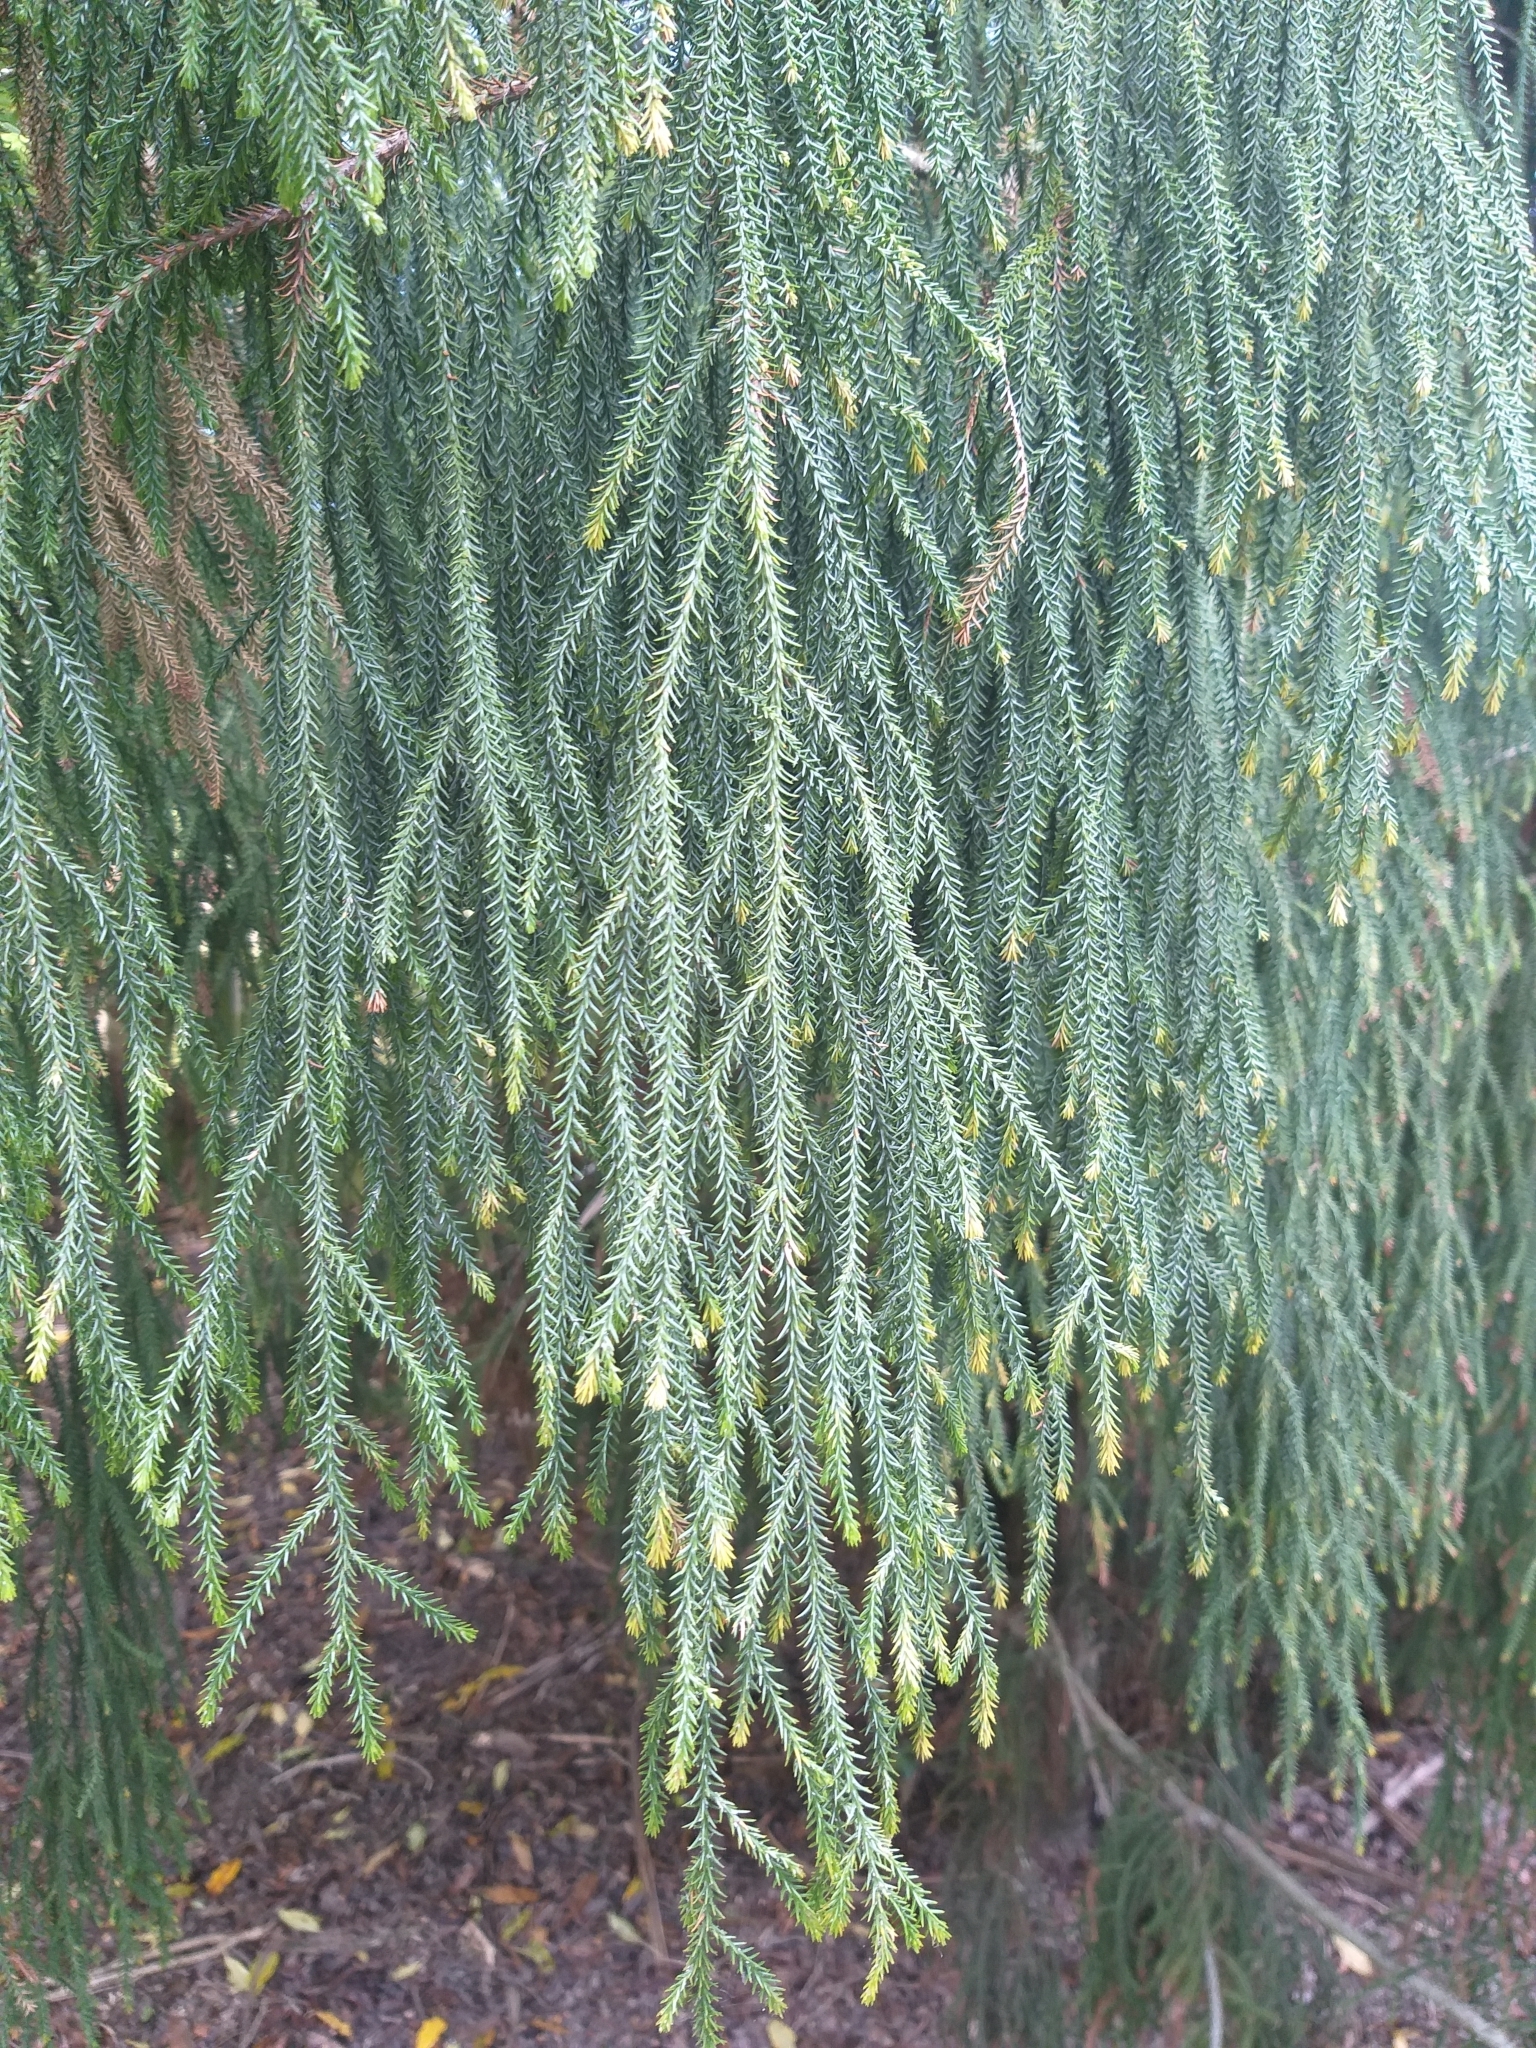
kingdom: Plantae
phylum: Tracheophyta
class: Pinopsida
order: Pinales
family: Podocarpaceae
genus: Dacrydium
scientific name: Dacrydium cupressinum
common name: Red pine
